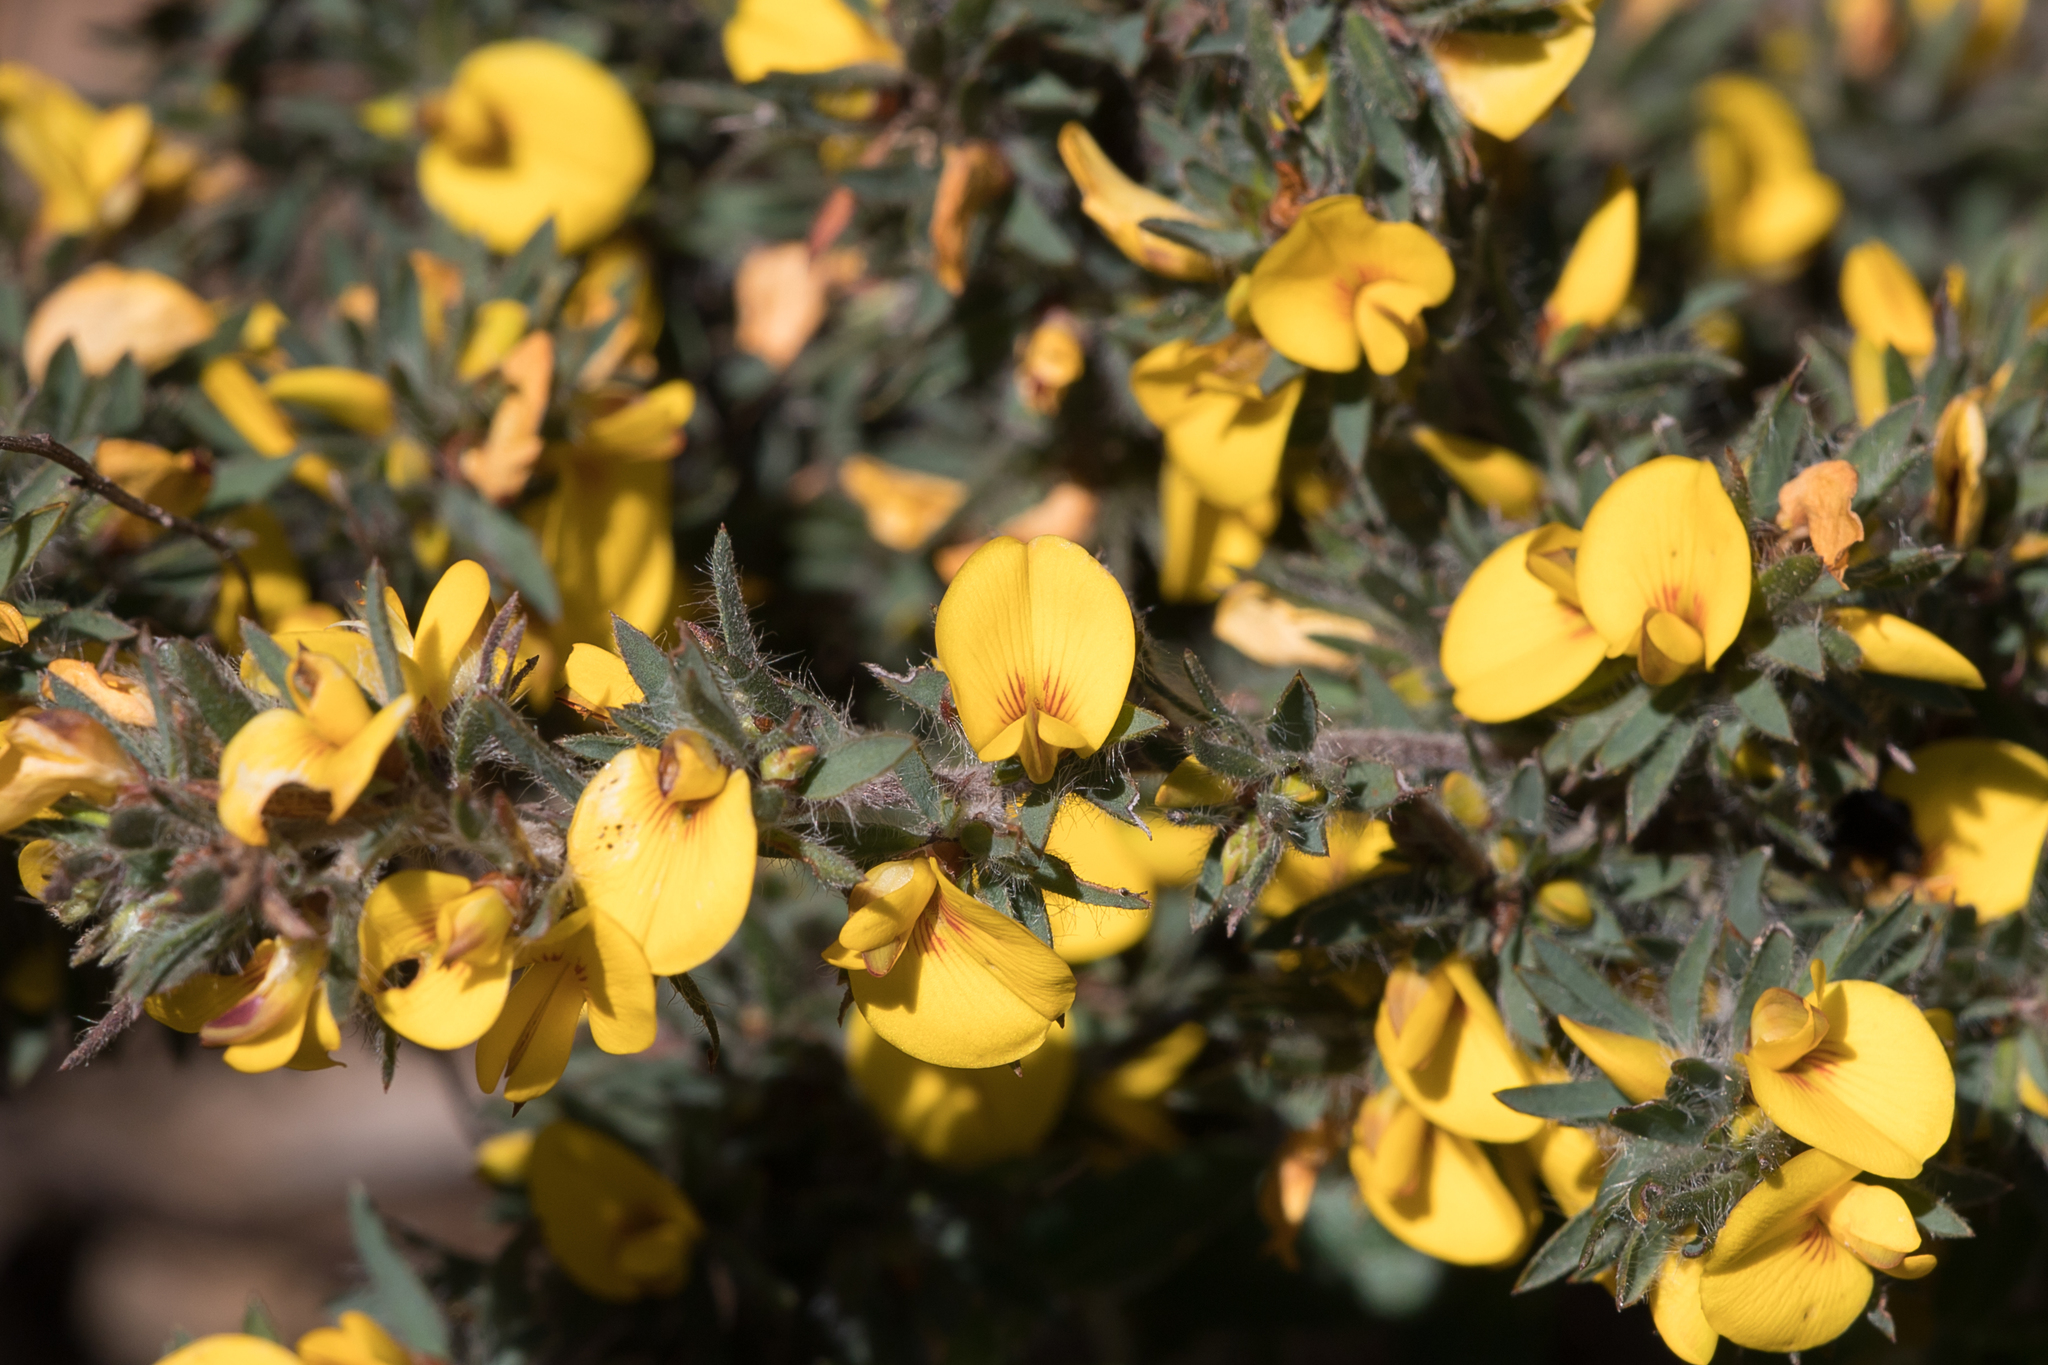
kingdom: Plantae
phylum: Tracheophyta
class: Magnoliopsida
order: Fabales
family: Fabaceae
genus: Pultenaea
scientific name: Pultenaea involucrata
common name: Mount lofty bush-pea
